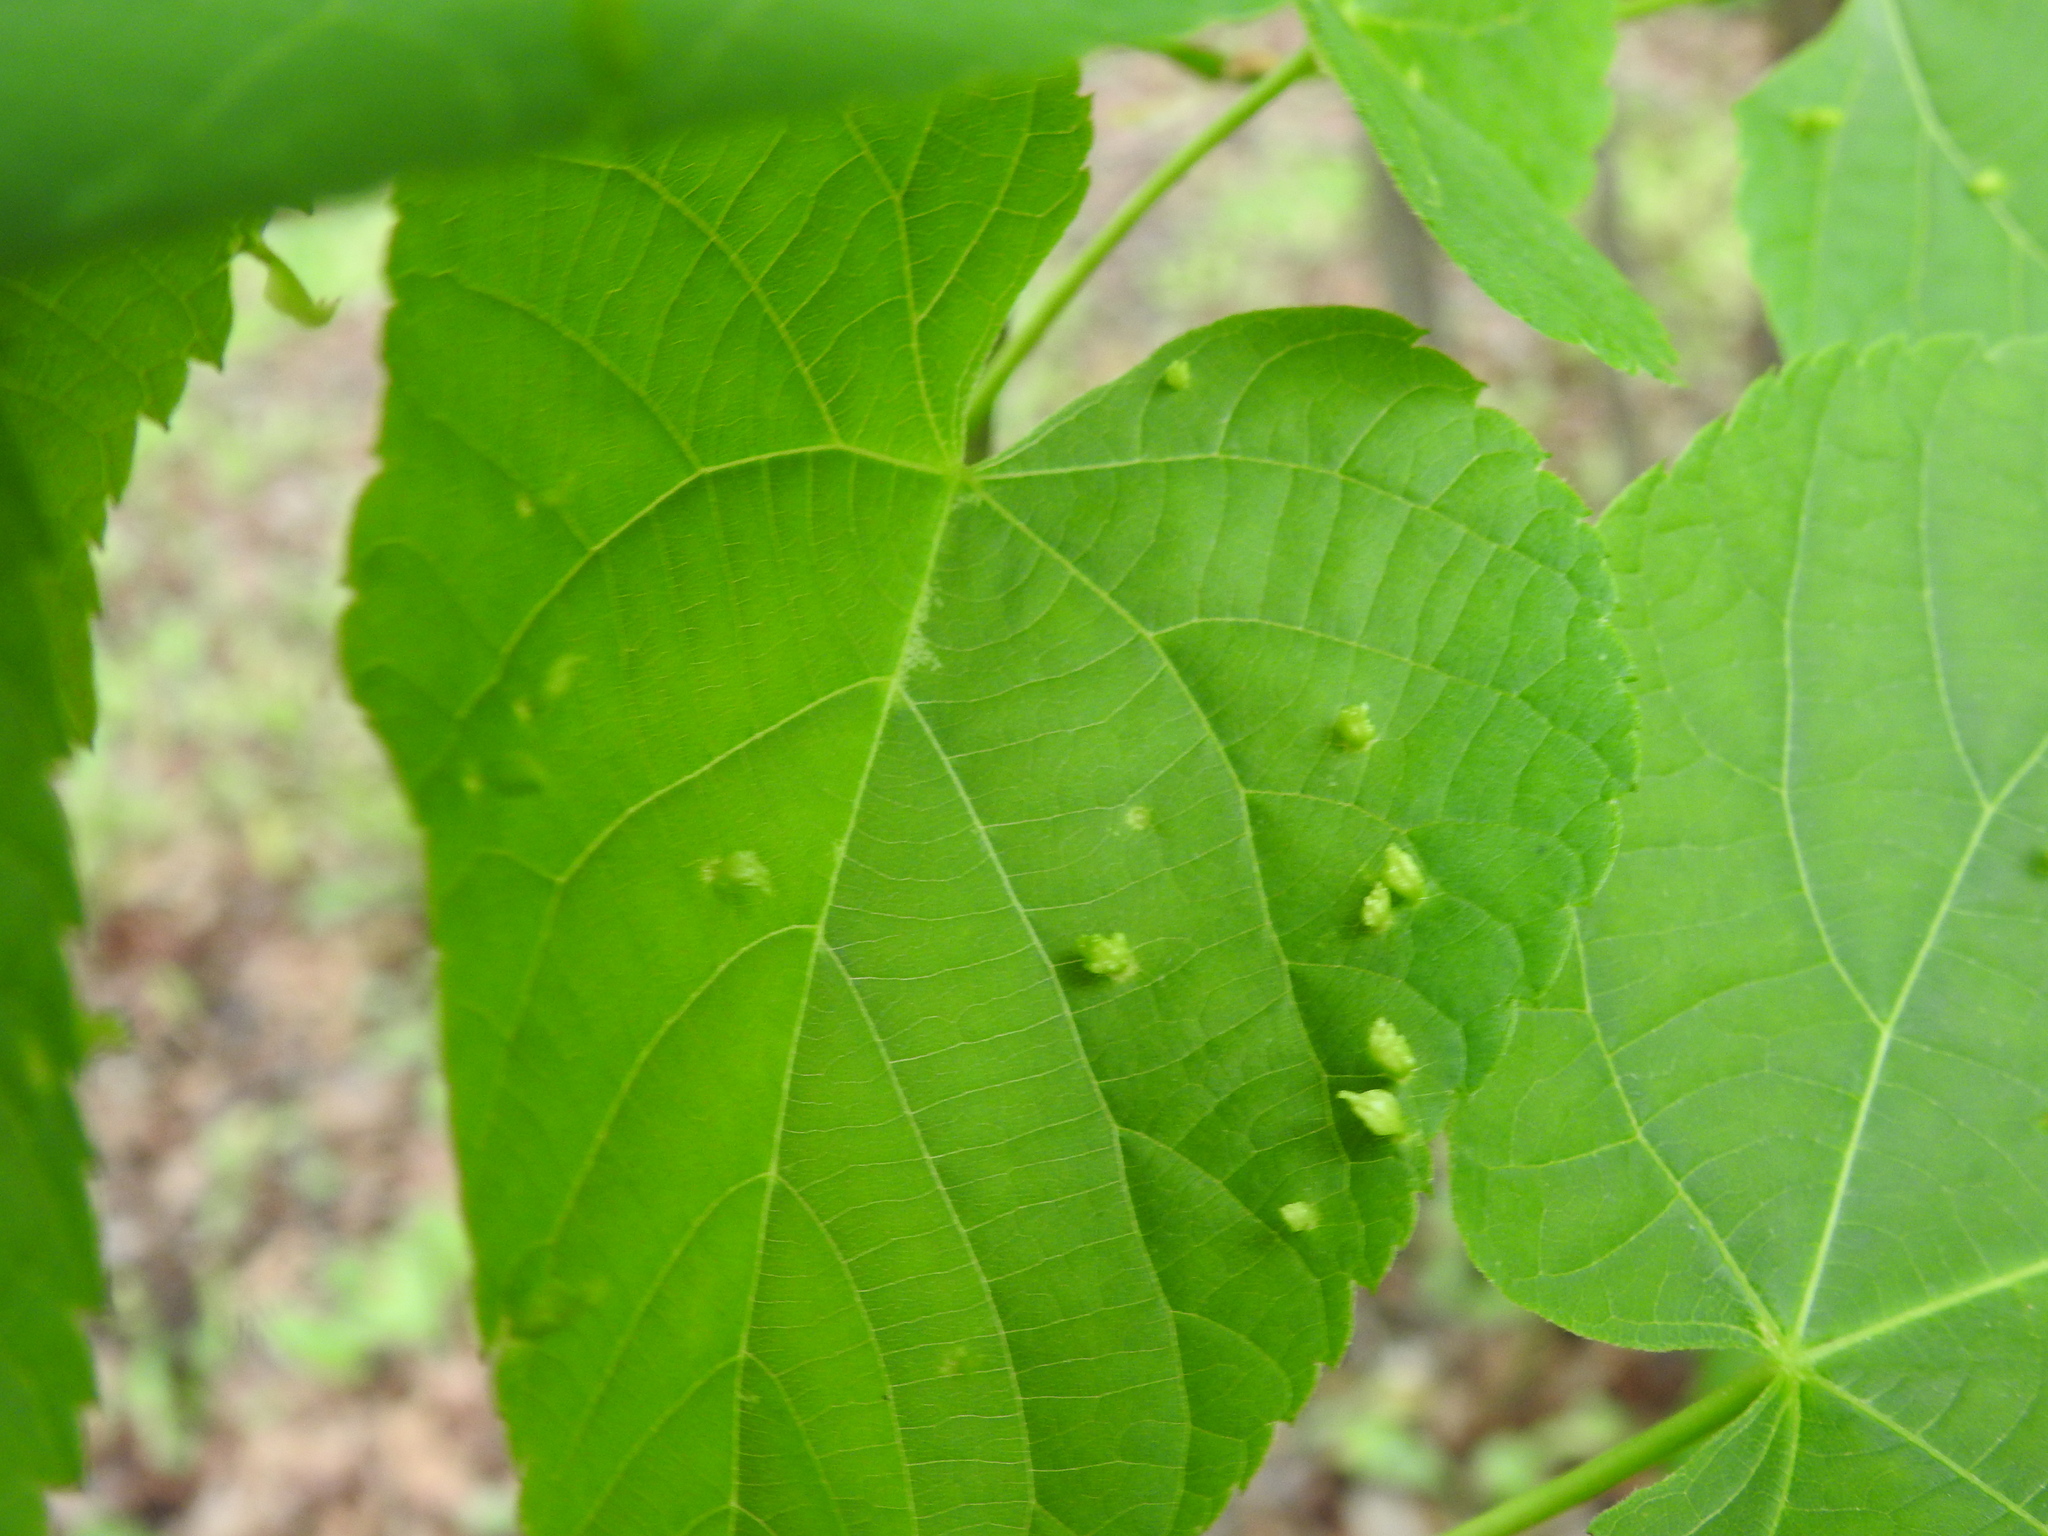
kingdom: Animalia
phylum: Arthropoda
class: Arachnida
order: Trombidiformes
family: Eriophyidae
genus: Eriophyes
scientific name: Eriophyes tiliae
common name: Red nail gall mite
